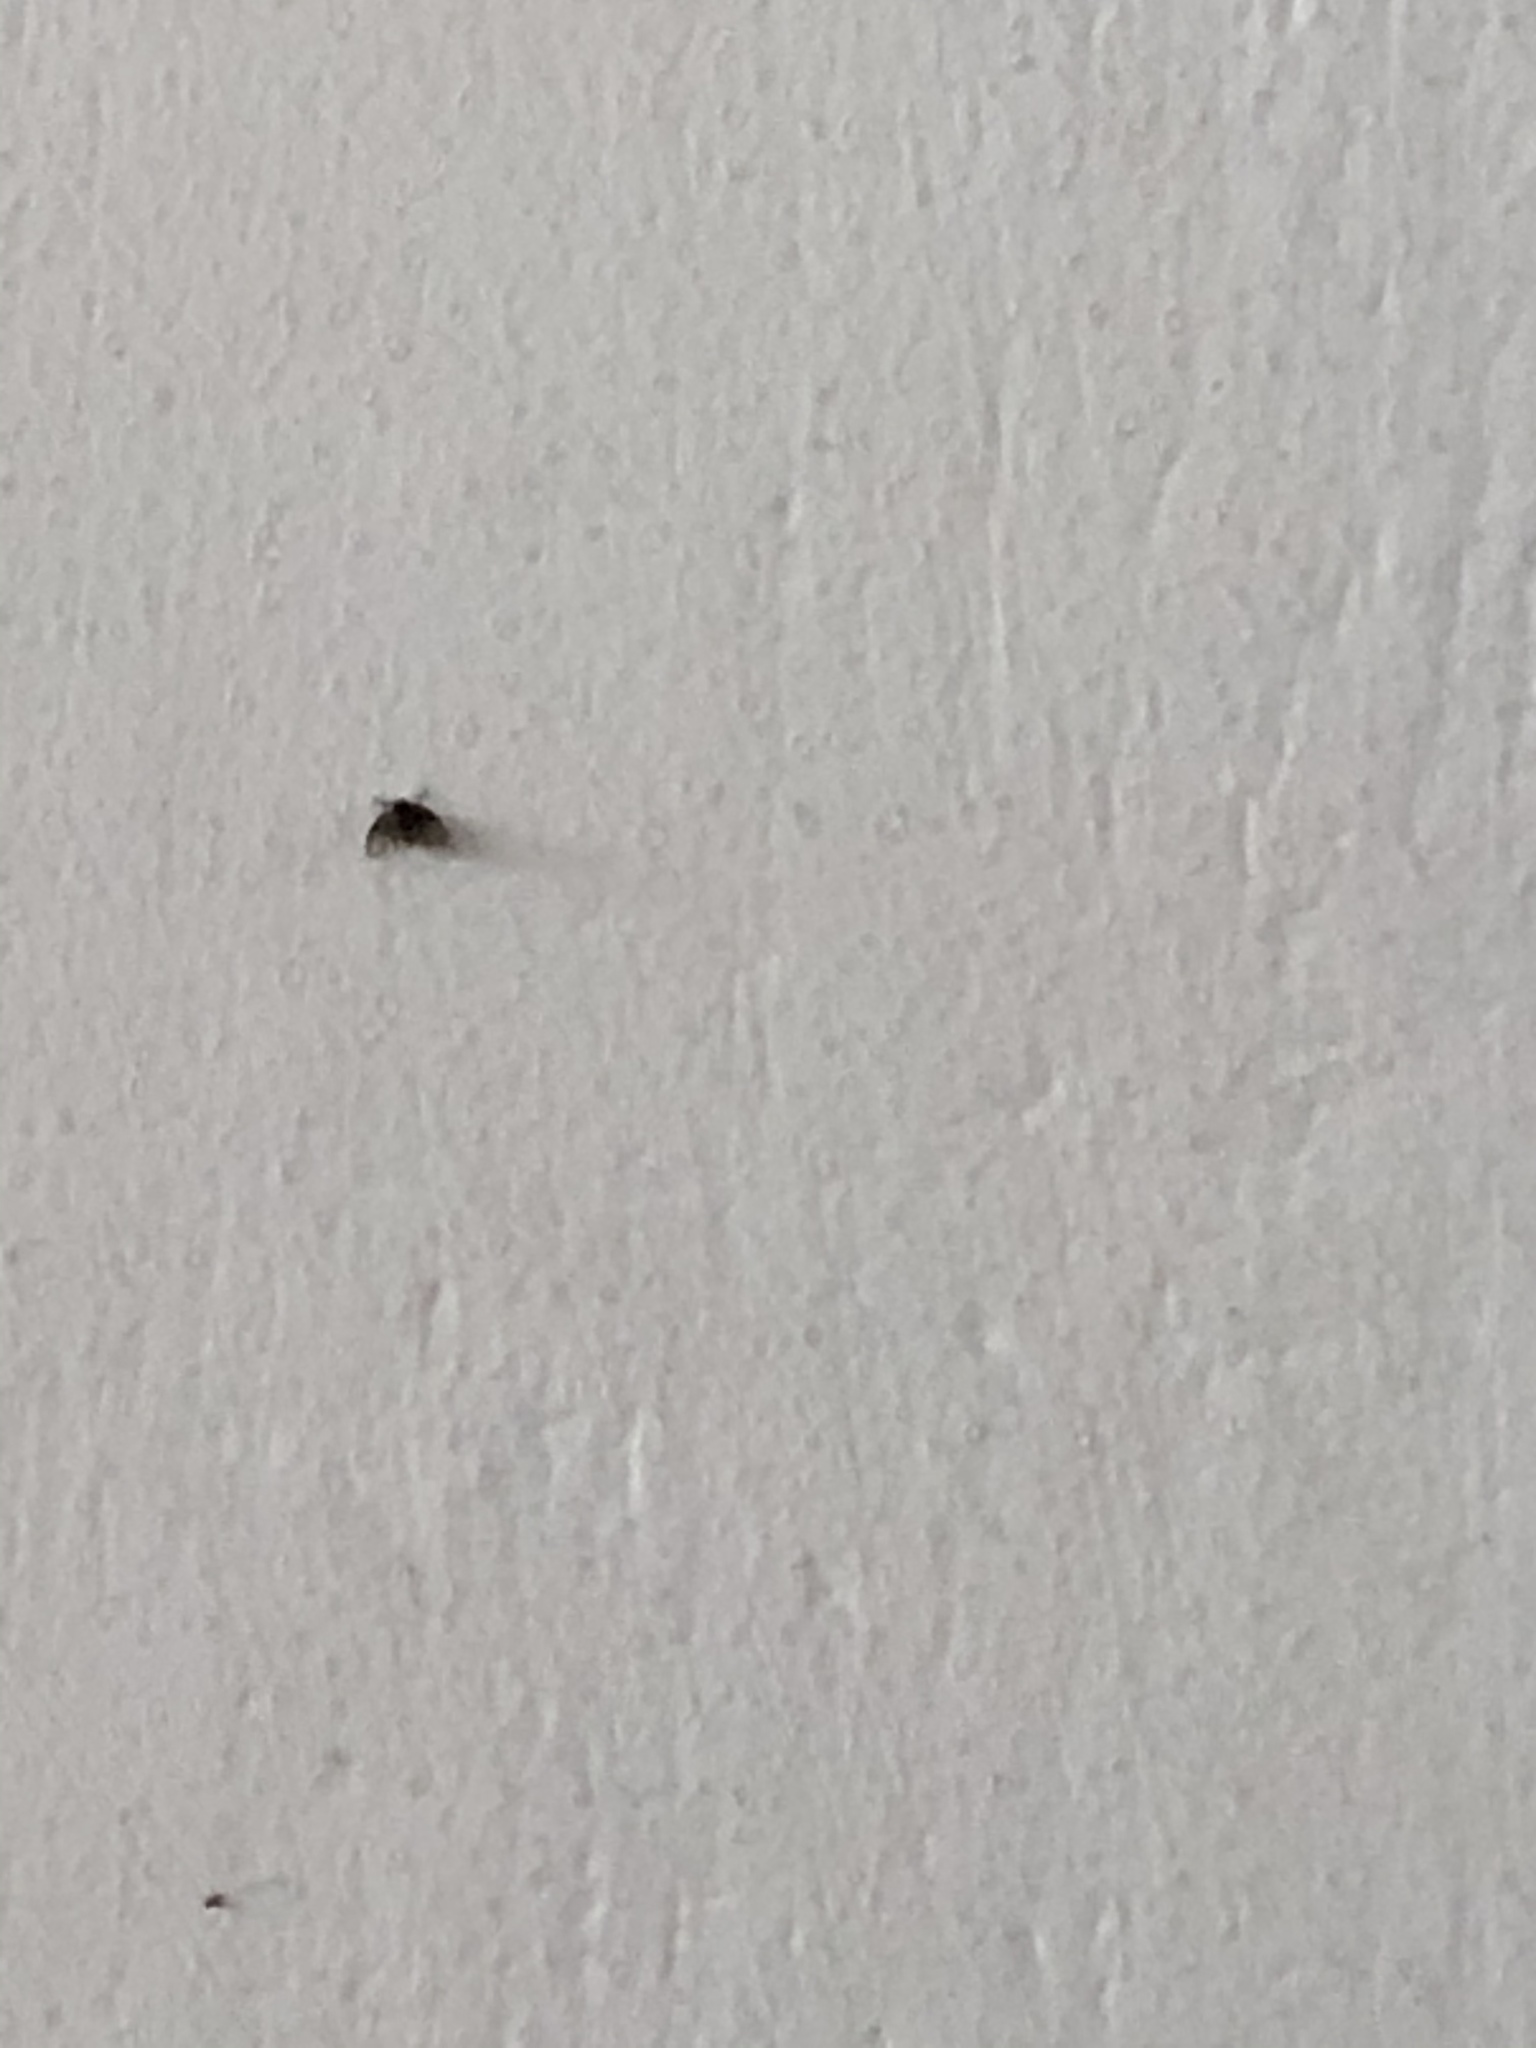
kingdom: Animalia
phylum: Arthropoda
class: Insecta
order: Diptera
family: Psychodidae
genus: Clogmia
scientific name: Clogmia albipunctatus
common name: White-spotted moth fly
